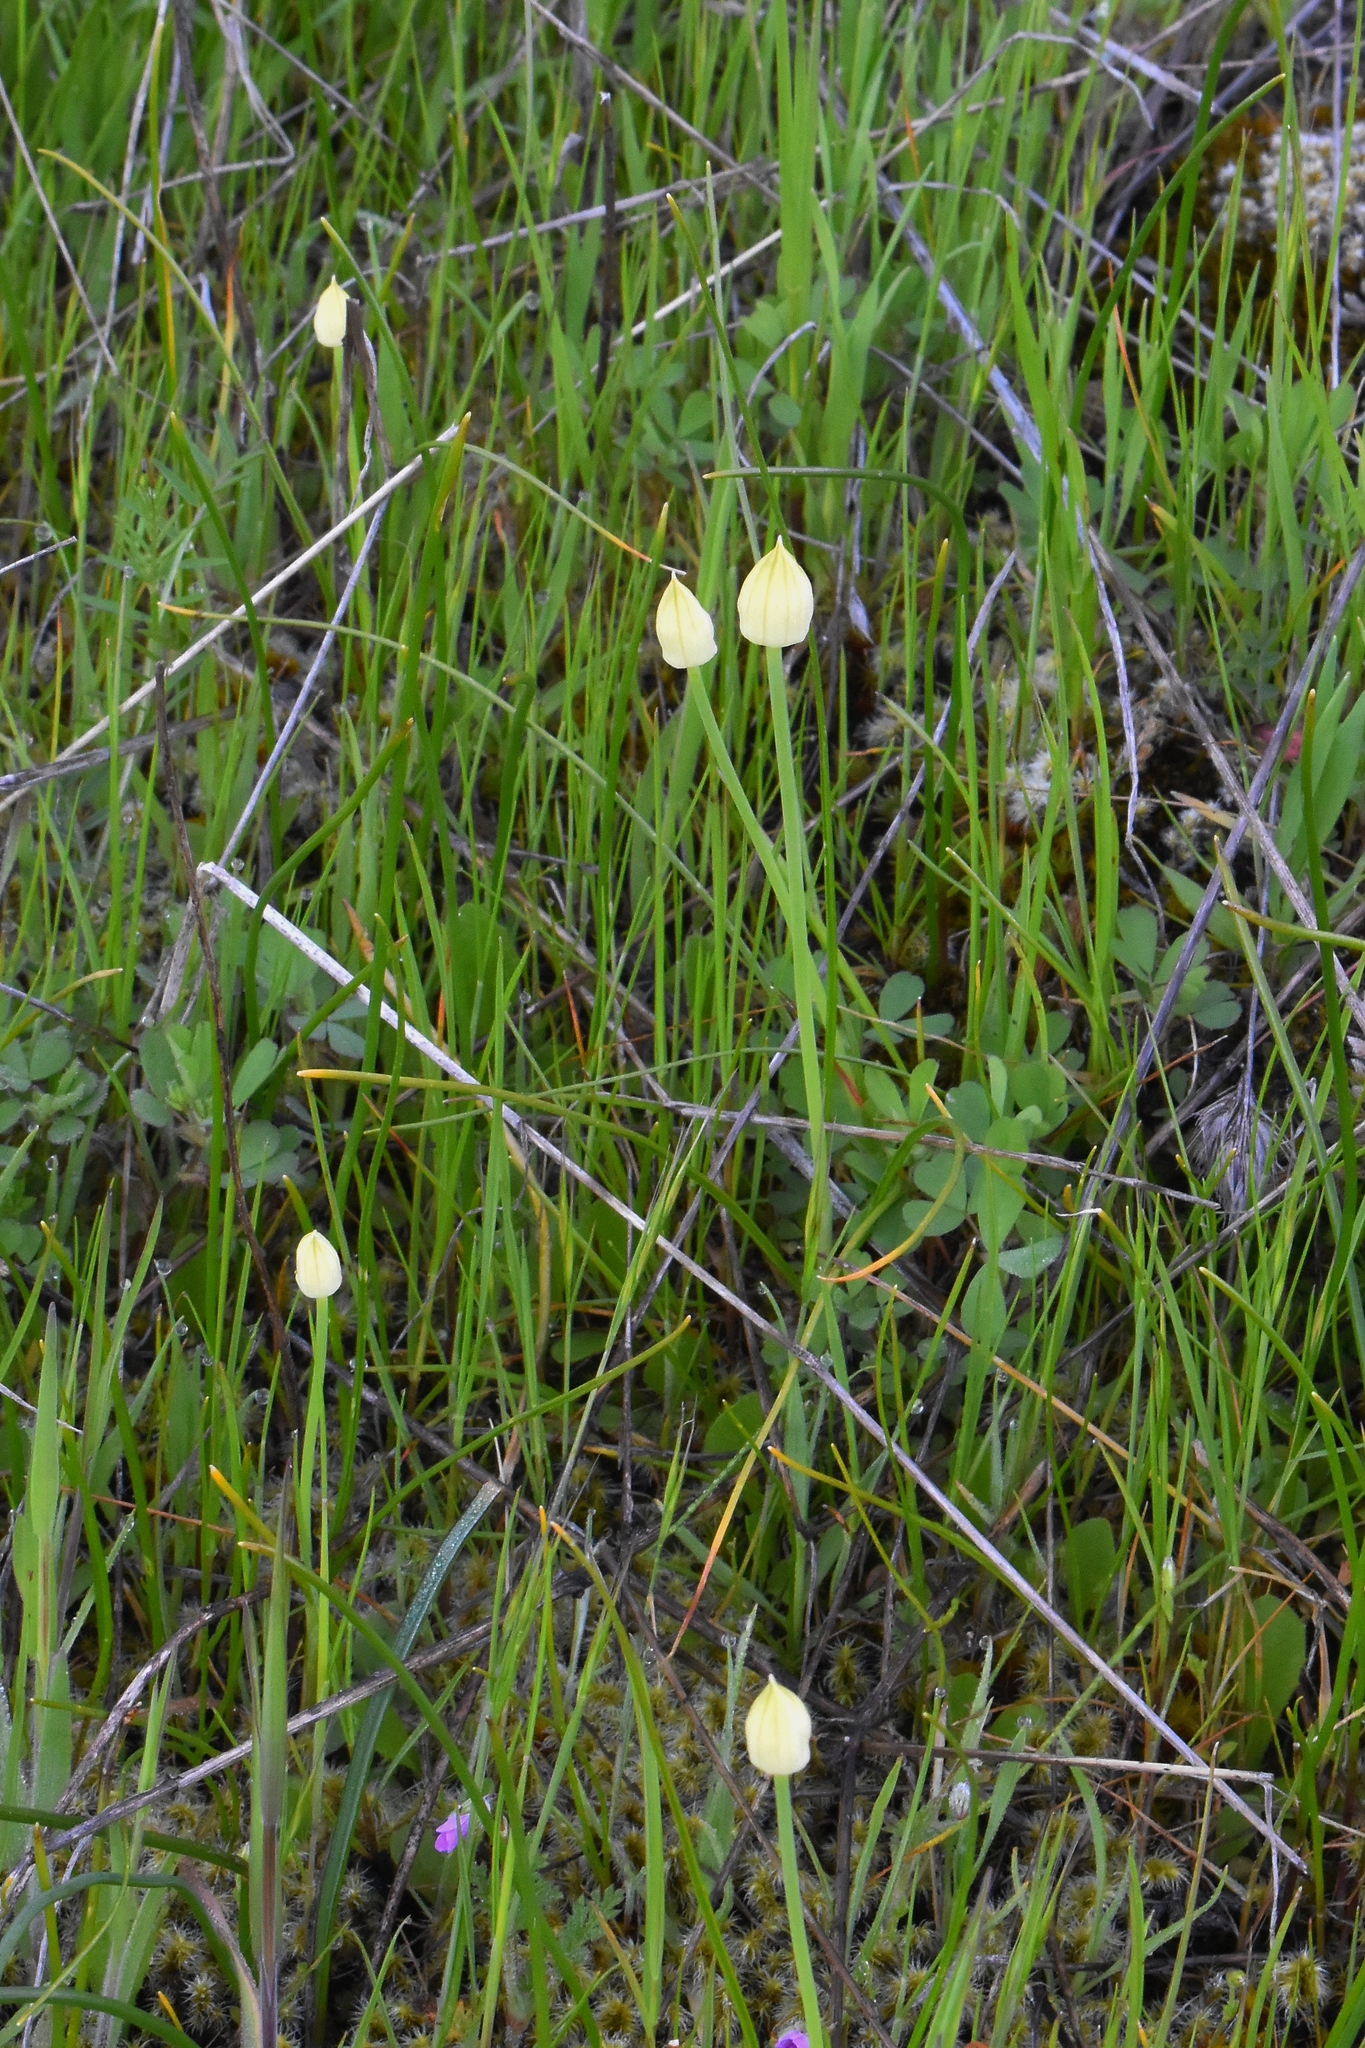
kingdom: Plantae
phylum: Tracheophyta
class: Liliopsida
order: Asparagales
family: Amaryllidaceae
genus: Allium
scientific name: Allium amplectens
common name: Narrow-leaved onion
